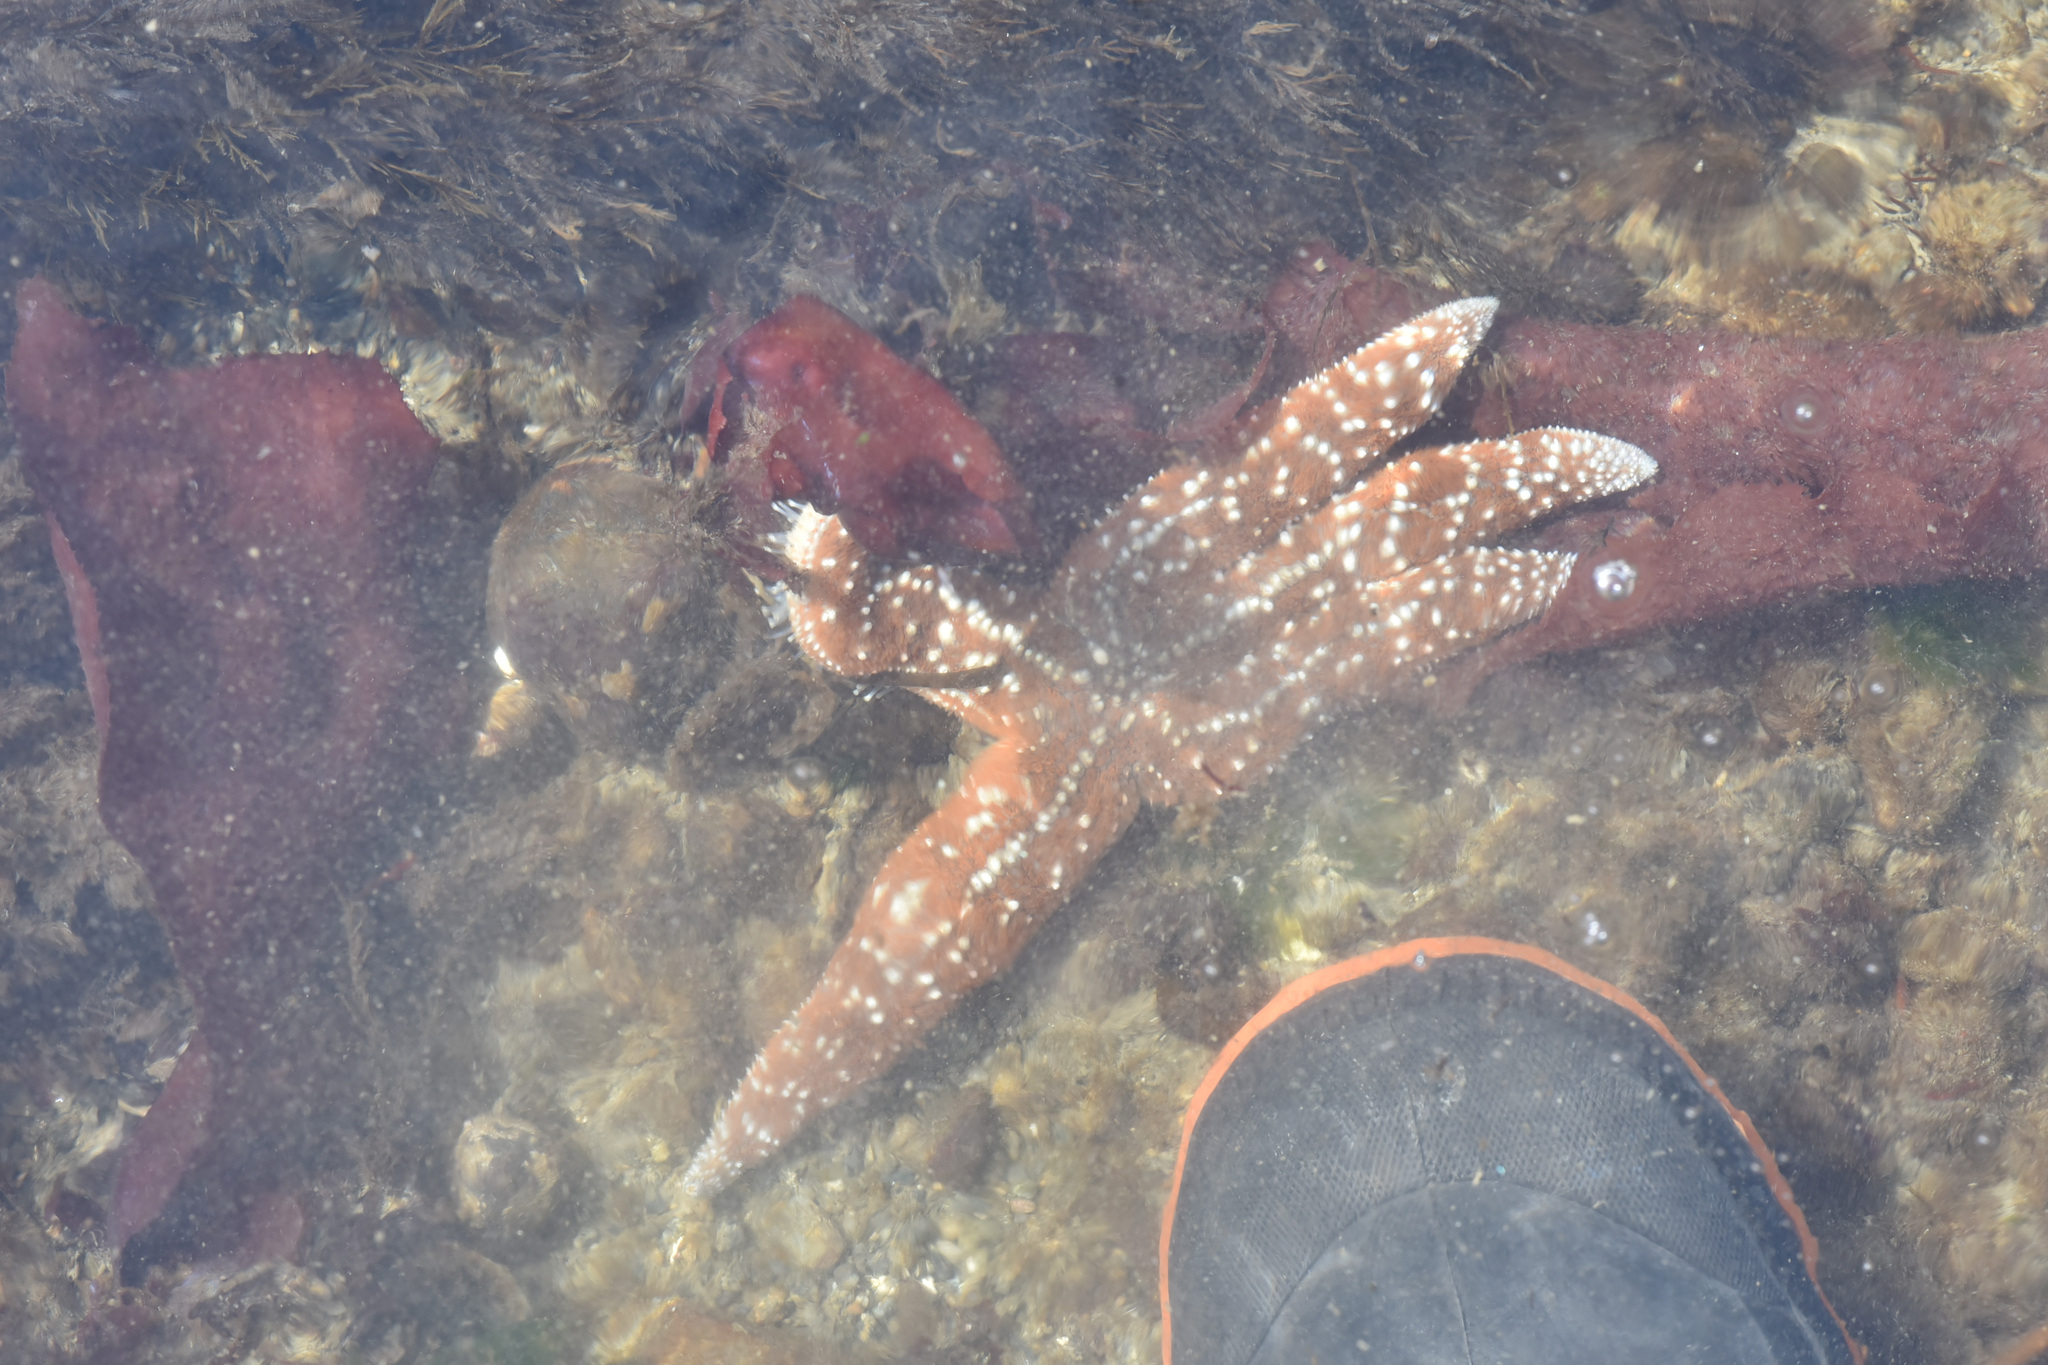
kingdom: Animalia
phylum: Echinodermata
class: Asteroidea
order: Forcipulatida
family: Asteriidae
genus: Evasterias
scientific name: Evasterias troschelii
